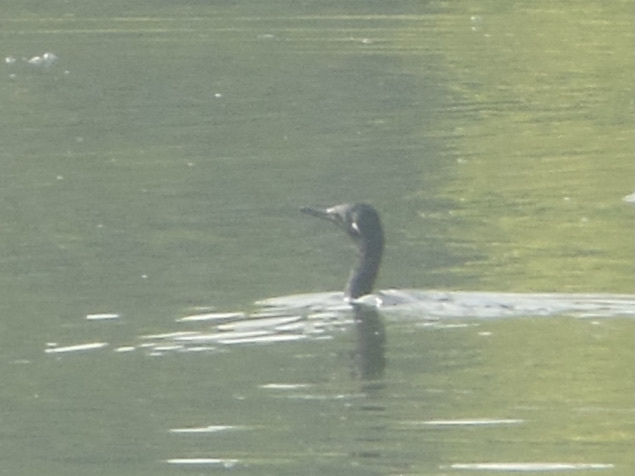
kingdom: Animalia
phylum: Chordata
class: Aves
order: Suliformes
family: Phalacrocoracidae
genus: Phalacrocorax
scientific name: Phalacrocorax fuscicollis
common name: Indian cormorant
